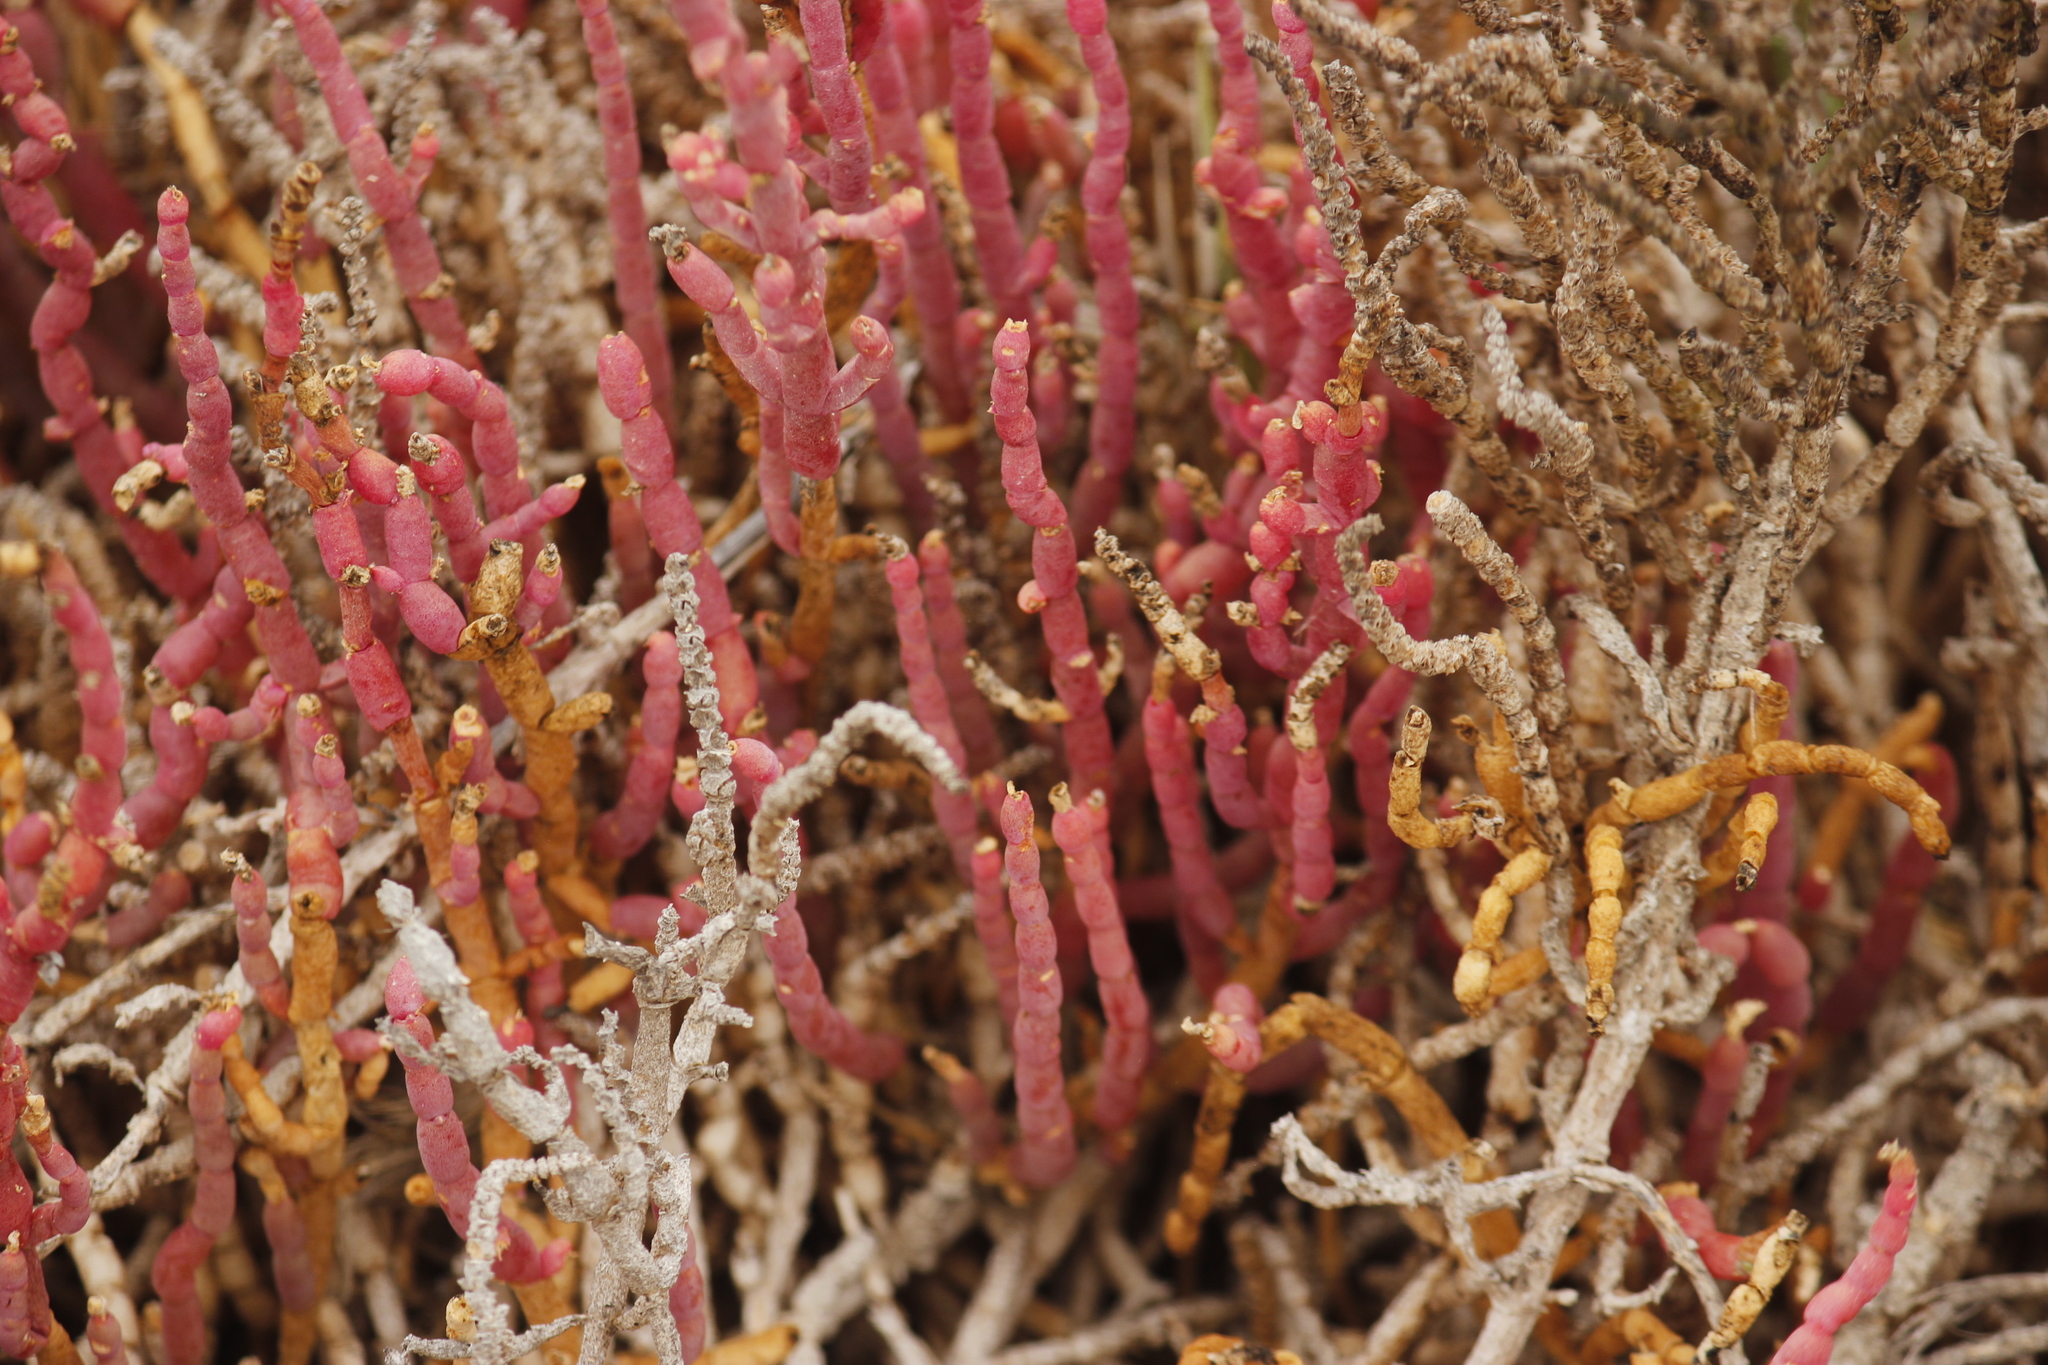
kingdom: Plantae
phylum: Tracheophyta
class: Magnoliopsida
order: Caryophyllales
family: Amaranthaceae
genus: Salicornia
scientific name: Salicornia neei
